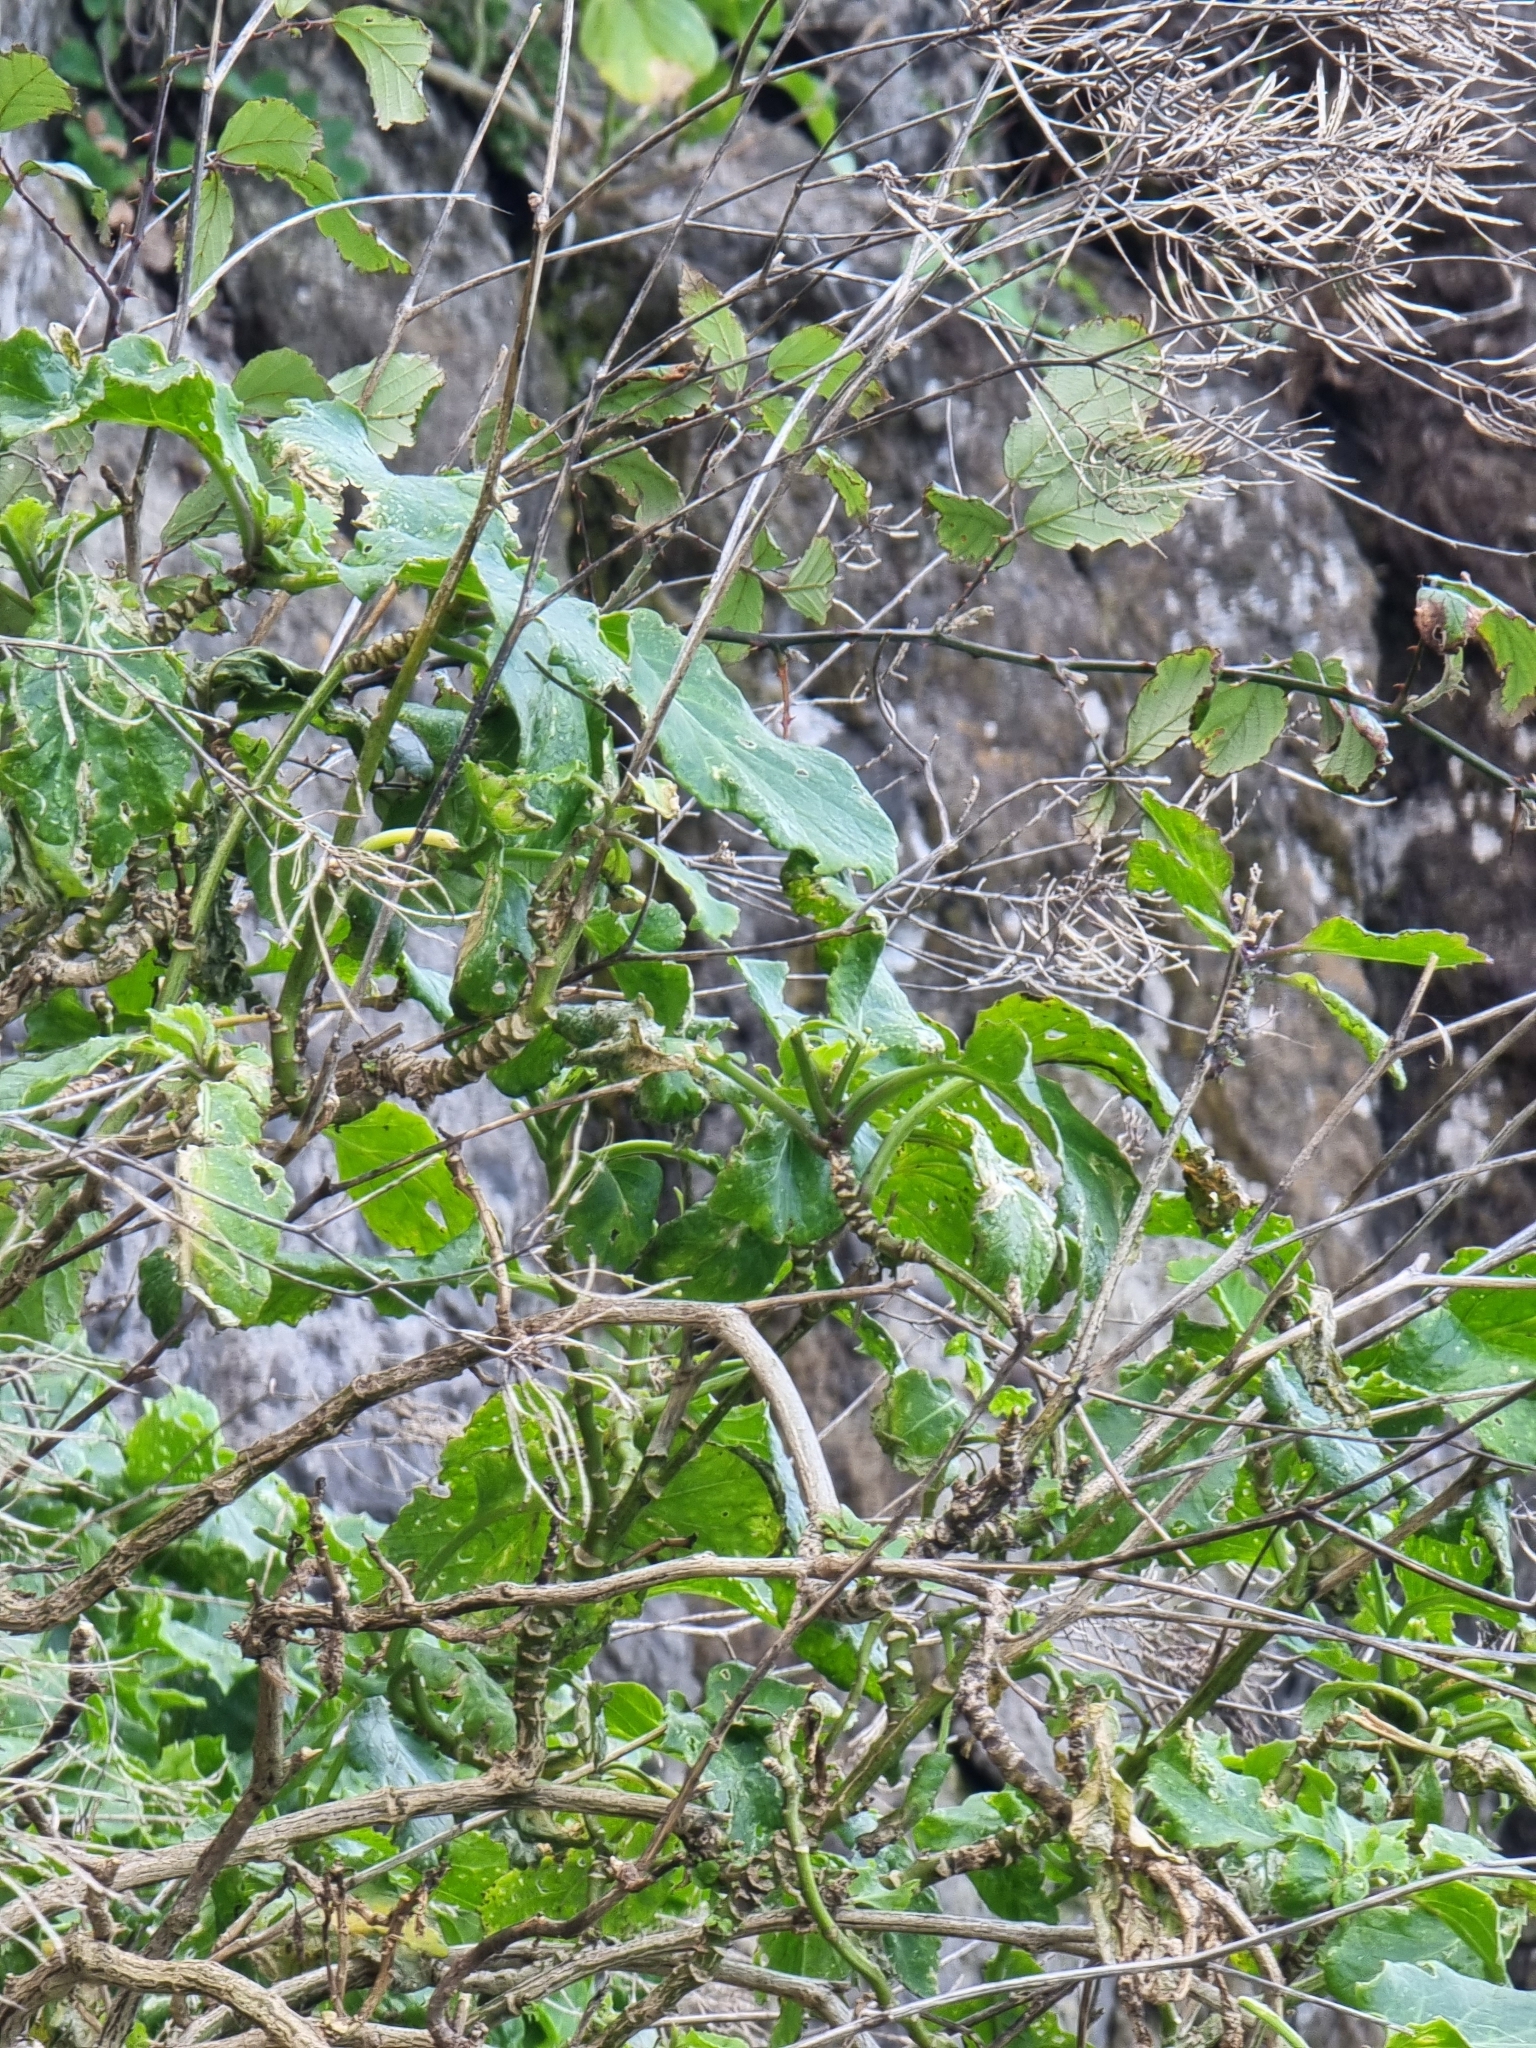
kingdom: Plantae
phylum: Tracheophyta
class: Magnoliopsida
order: Brassicales
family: Brassicaceae
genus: Sinapidendron
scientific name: Sinapidendron rupestre
